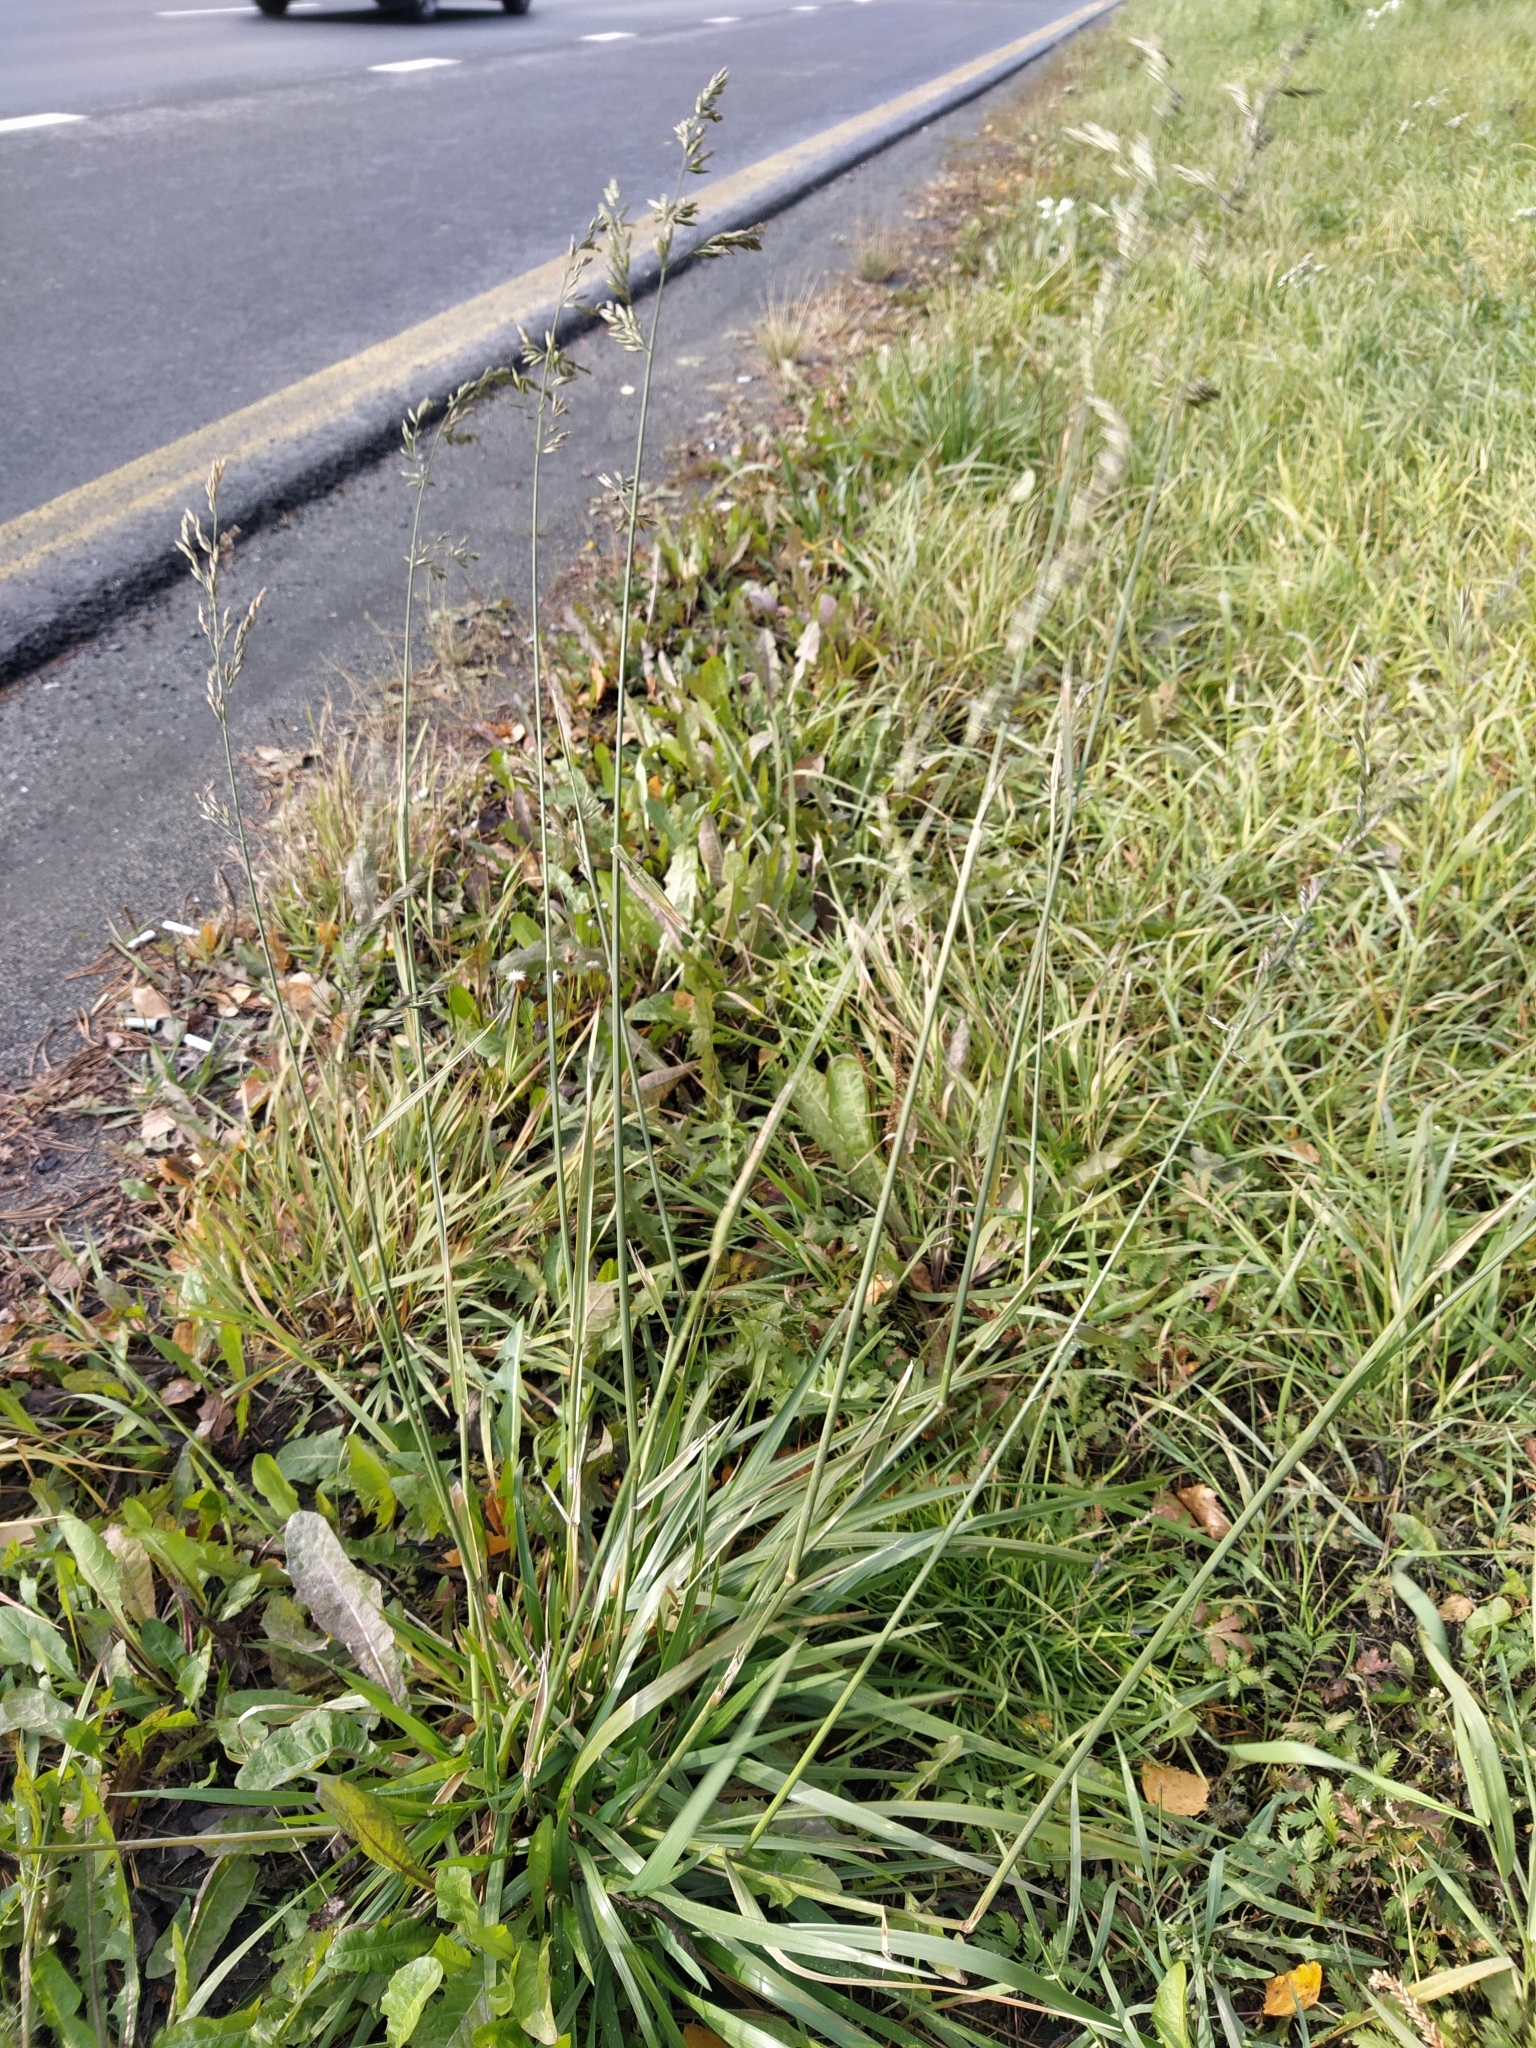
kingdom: Plantae
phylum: Tracheophyta
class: Liliopsida
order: Poales
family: Poaceae
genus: Lolium
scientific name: Lolium pratense
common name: Dover grass
